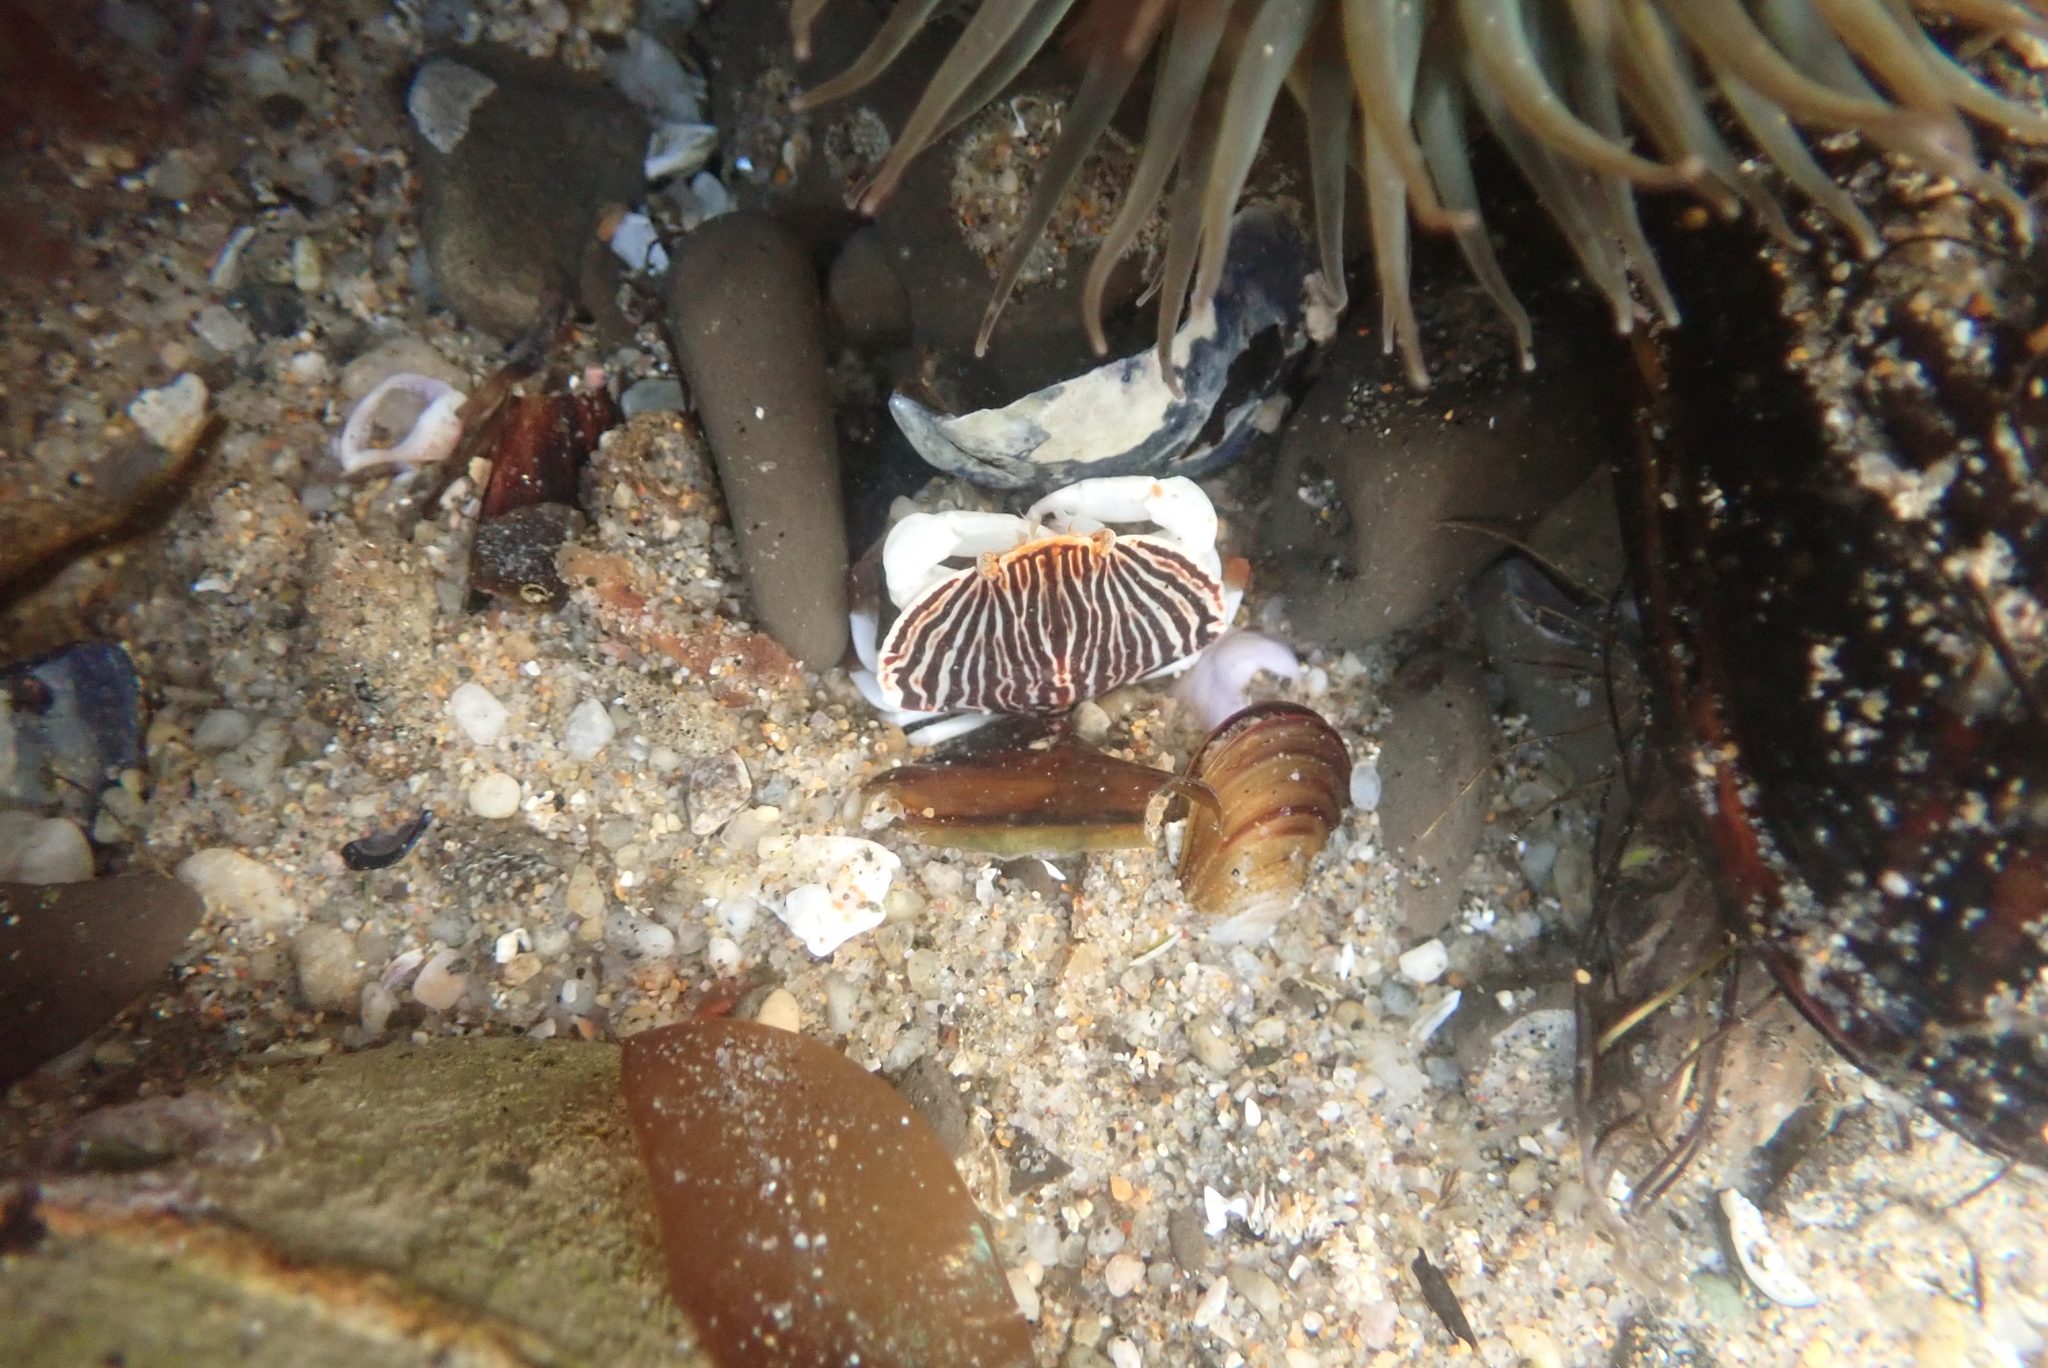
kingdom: Animalia
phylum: Arthropoda
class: Malacostraca
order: Decapoda
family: Cancridae
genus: Cancer
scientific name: Cancer productus
